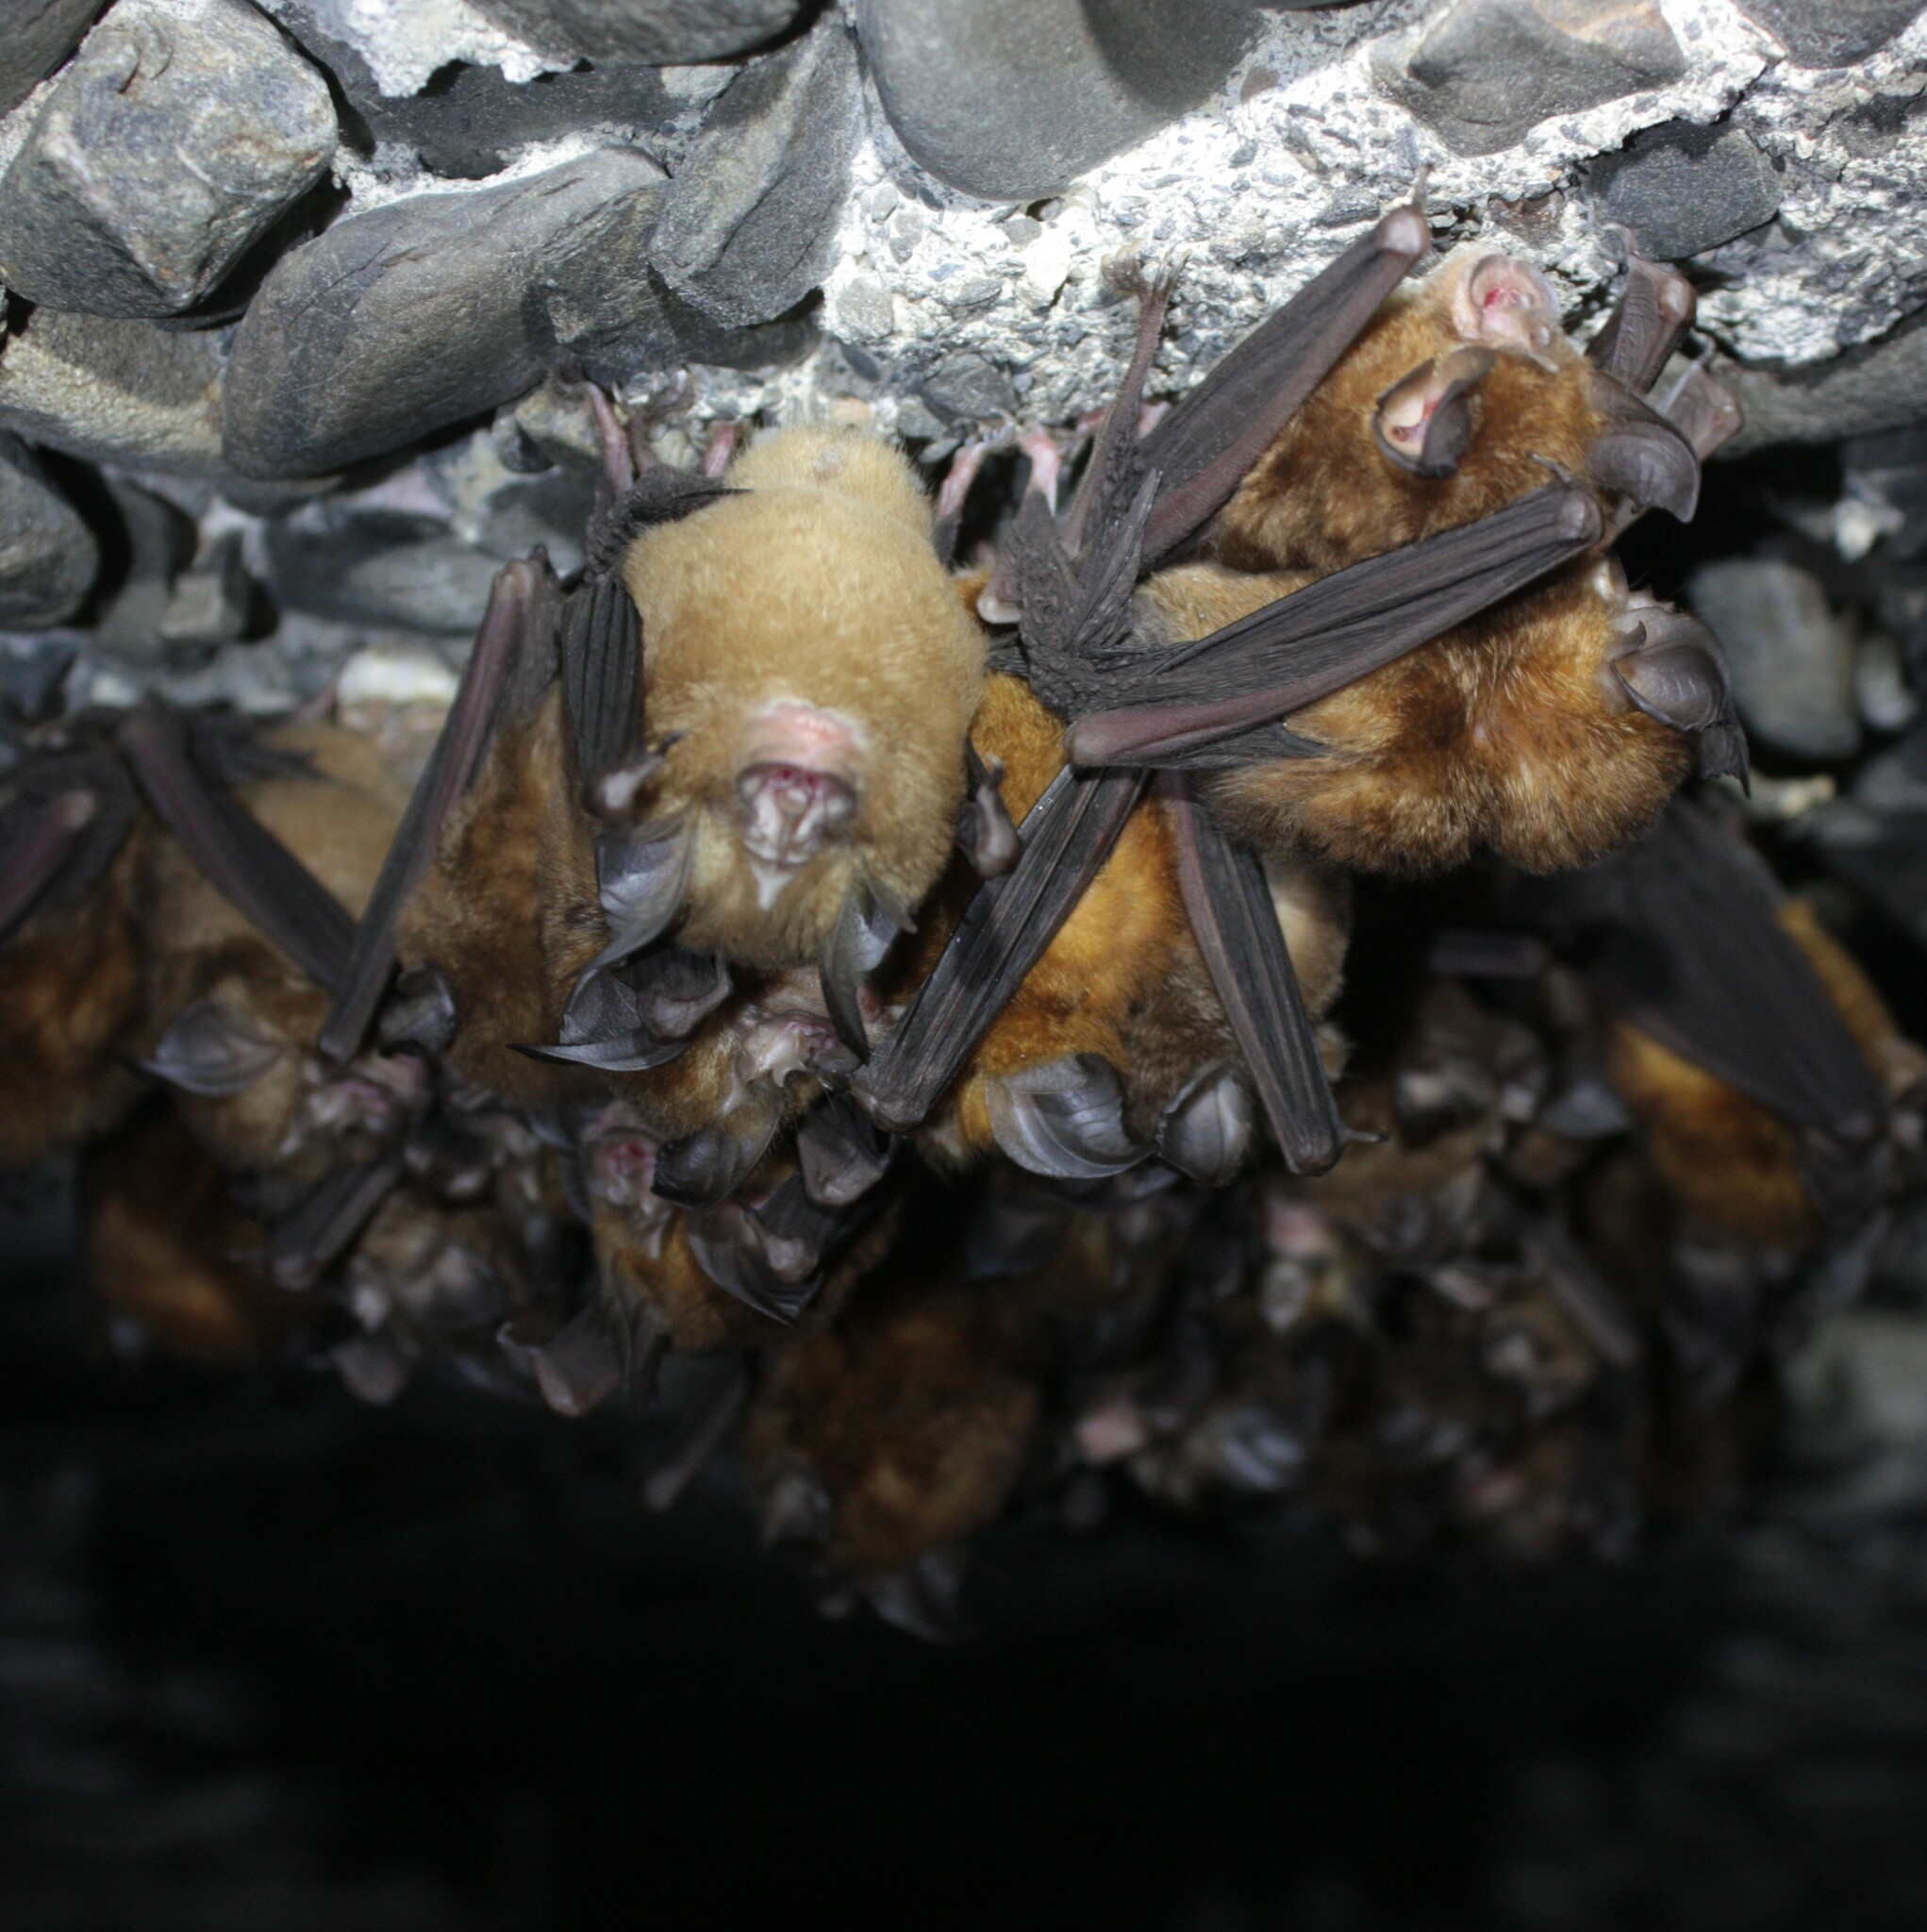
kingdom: Animalia
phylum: Chordata
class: Mammalia
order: Chiroptera
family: Rhinolophidae
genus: Rhinolophus
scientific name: Rhinolophus monoceros
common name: Formosan lesser horseshoe bat
